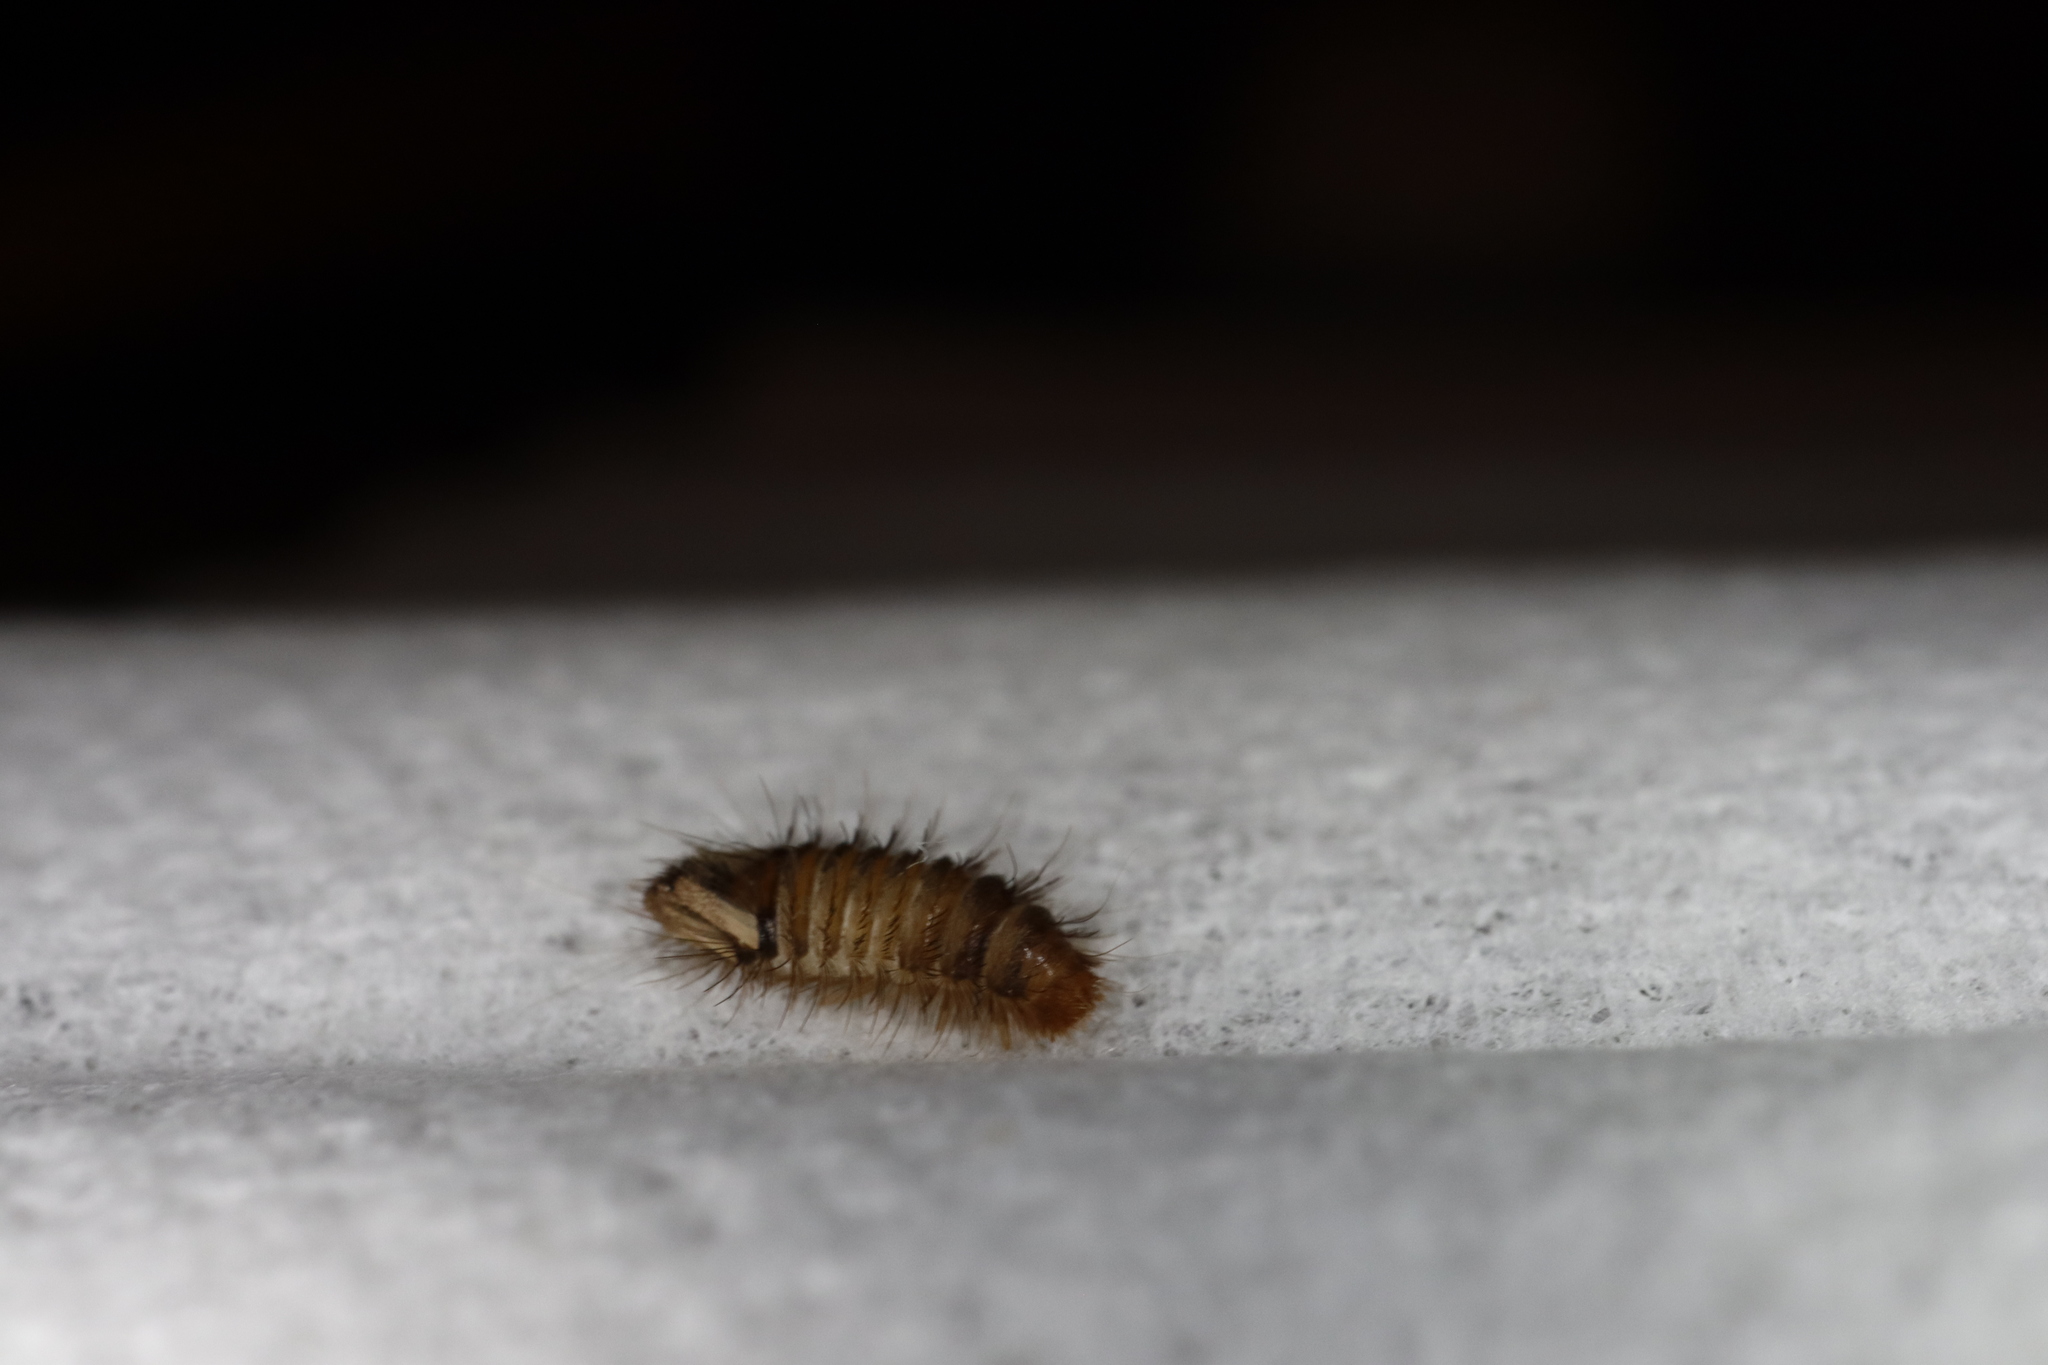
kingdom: Animalia
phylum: Arthropoda
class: Insecta
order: Coleoptera
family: Dermestidae
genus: Anthrenus
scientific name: Anthrenus verbasci
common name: Varied carpet beetle
